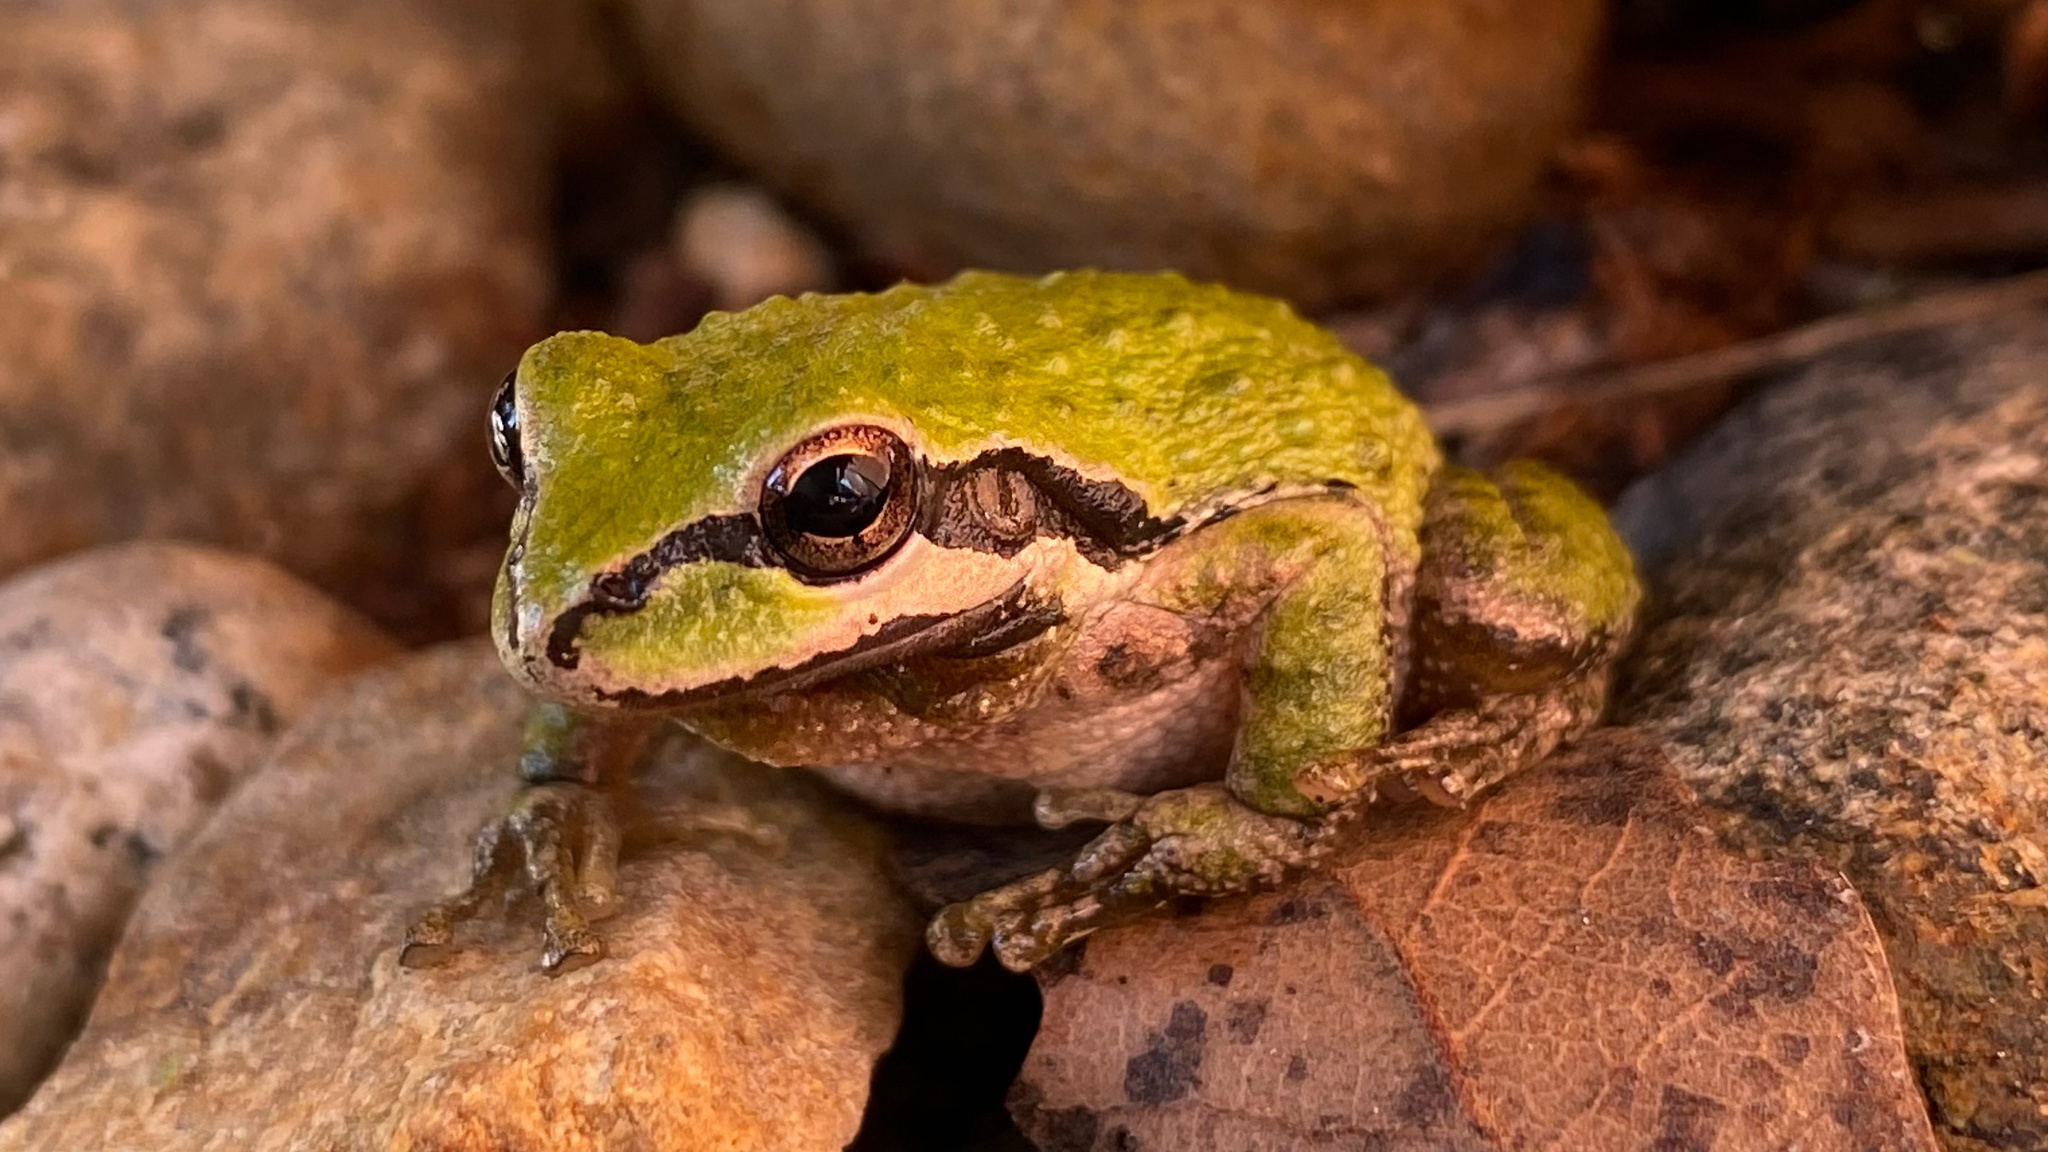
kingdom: Animalia
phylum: Chordata
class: Amphibia
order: Anura
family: Hylidae
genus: Pseudacris
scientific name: Pseudacris regilla
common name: Pacific chorus frog
